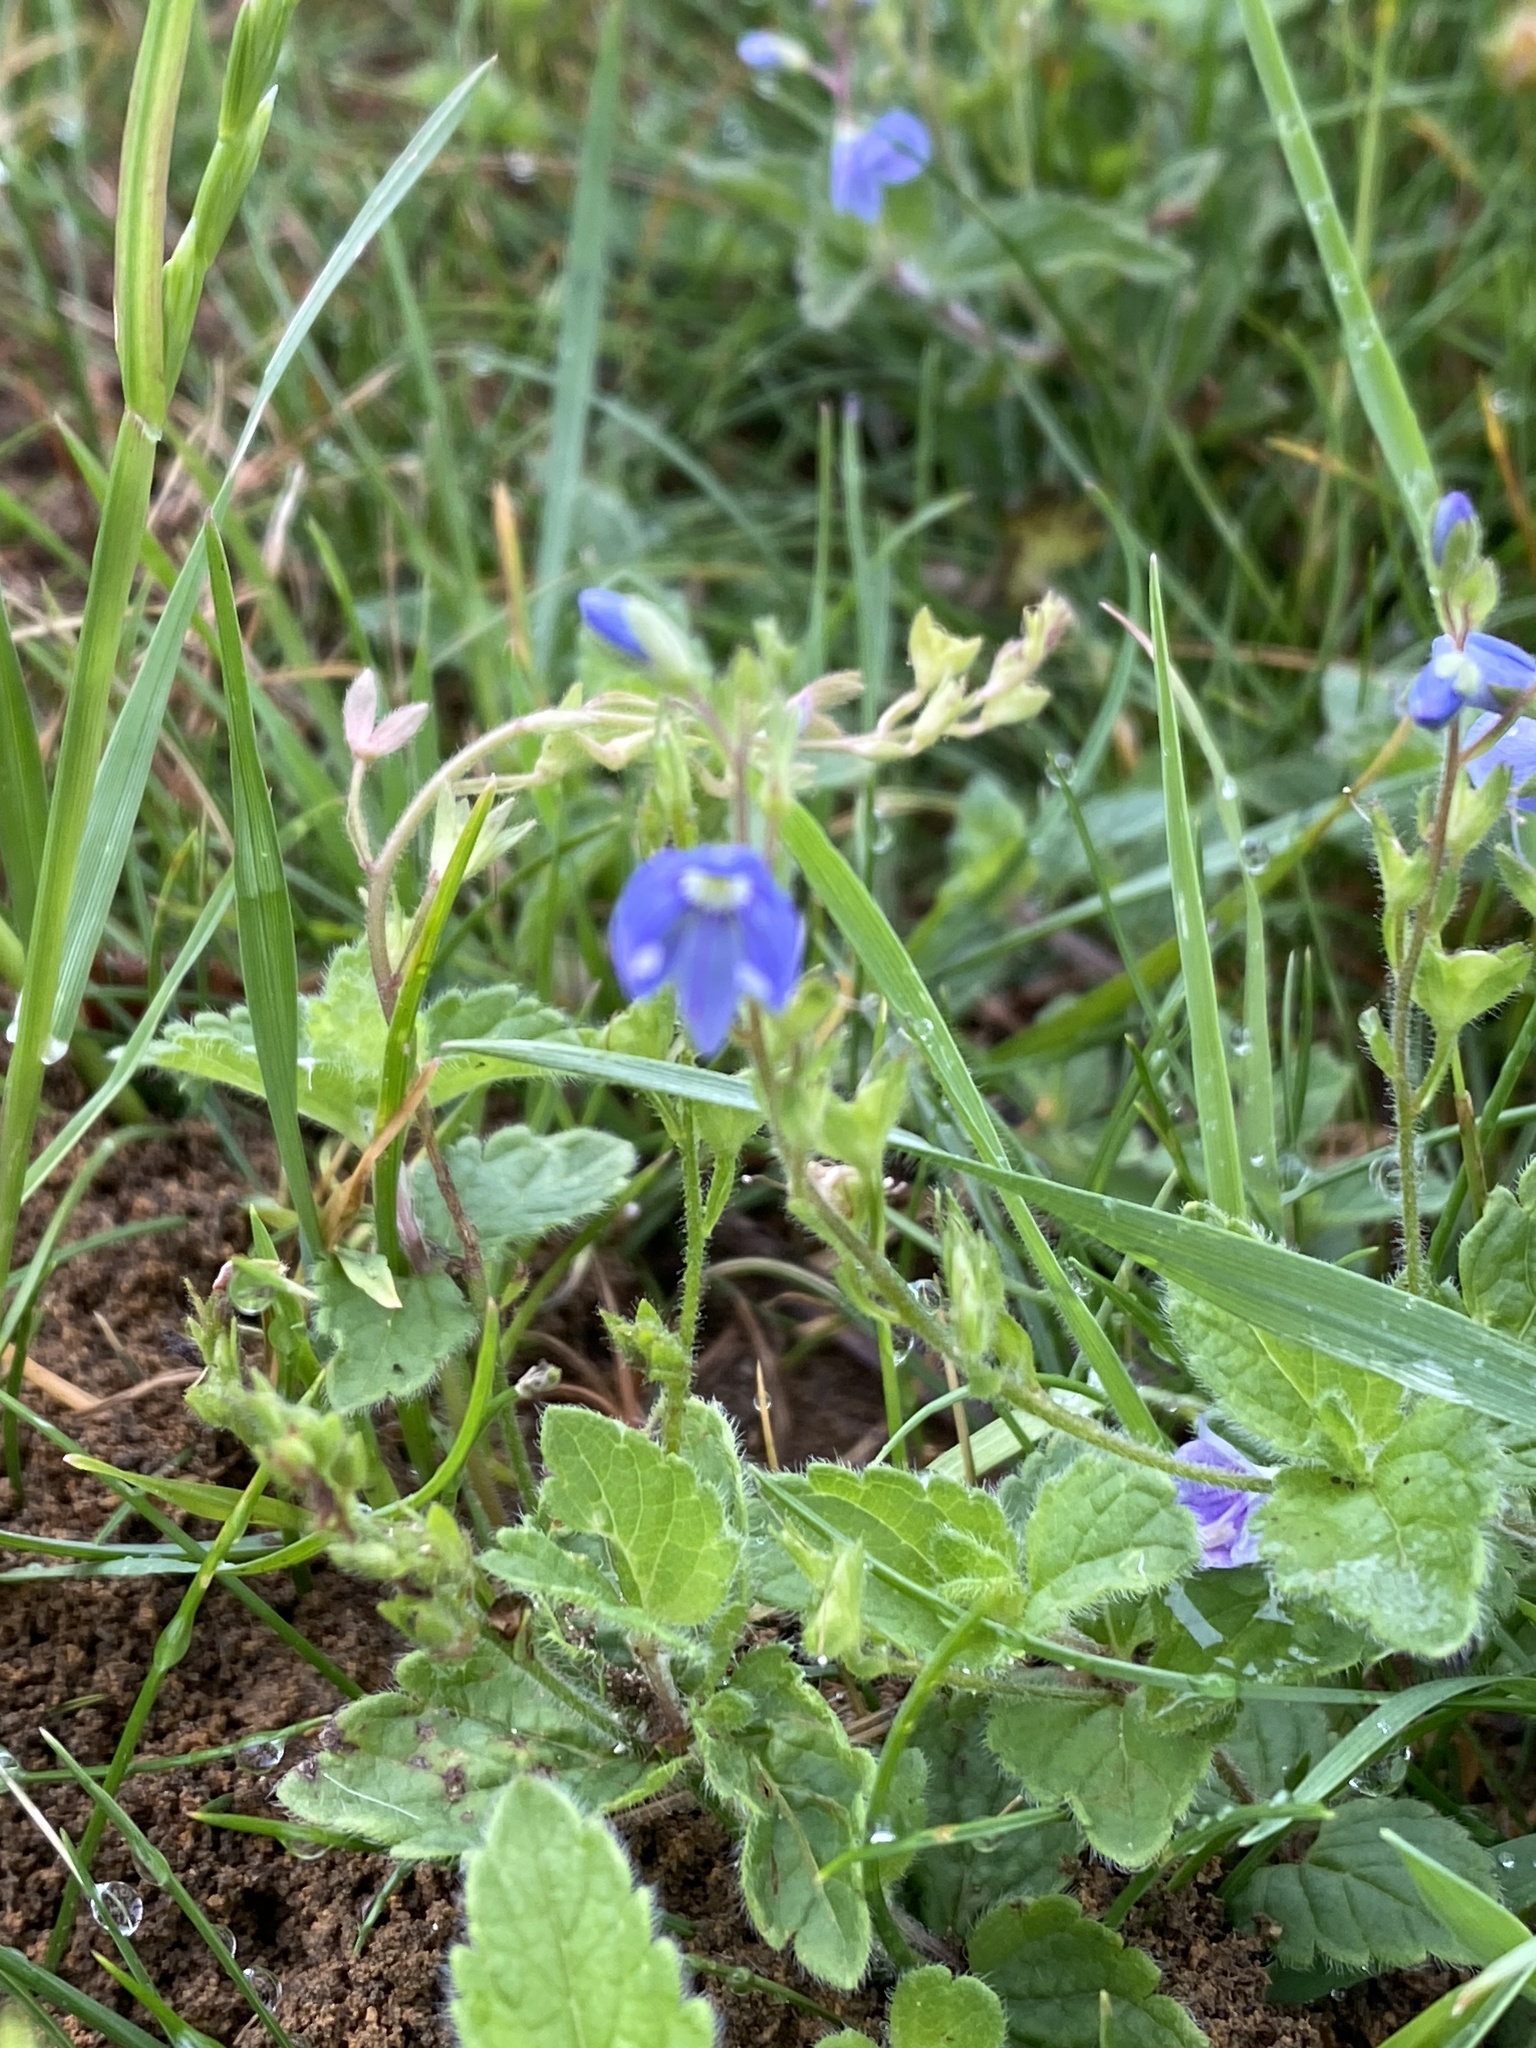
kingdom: Plantae
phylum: Tracheophyta
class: Magnoliopsida
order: Lamiales
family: Plantaginaceae
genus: Veronica
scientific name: Veronica chamaedrys
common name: Germander speedwell
